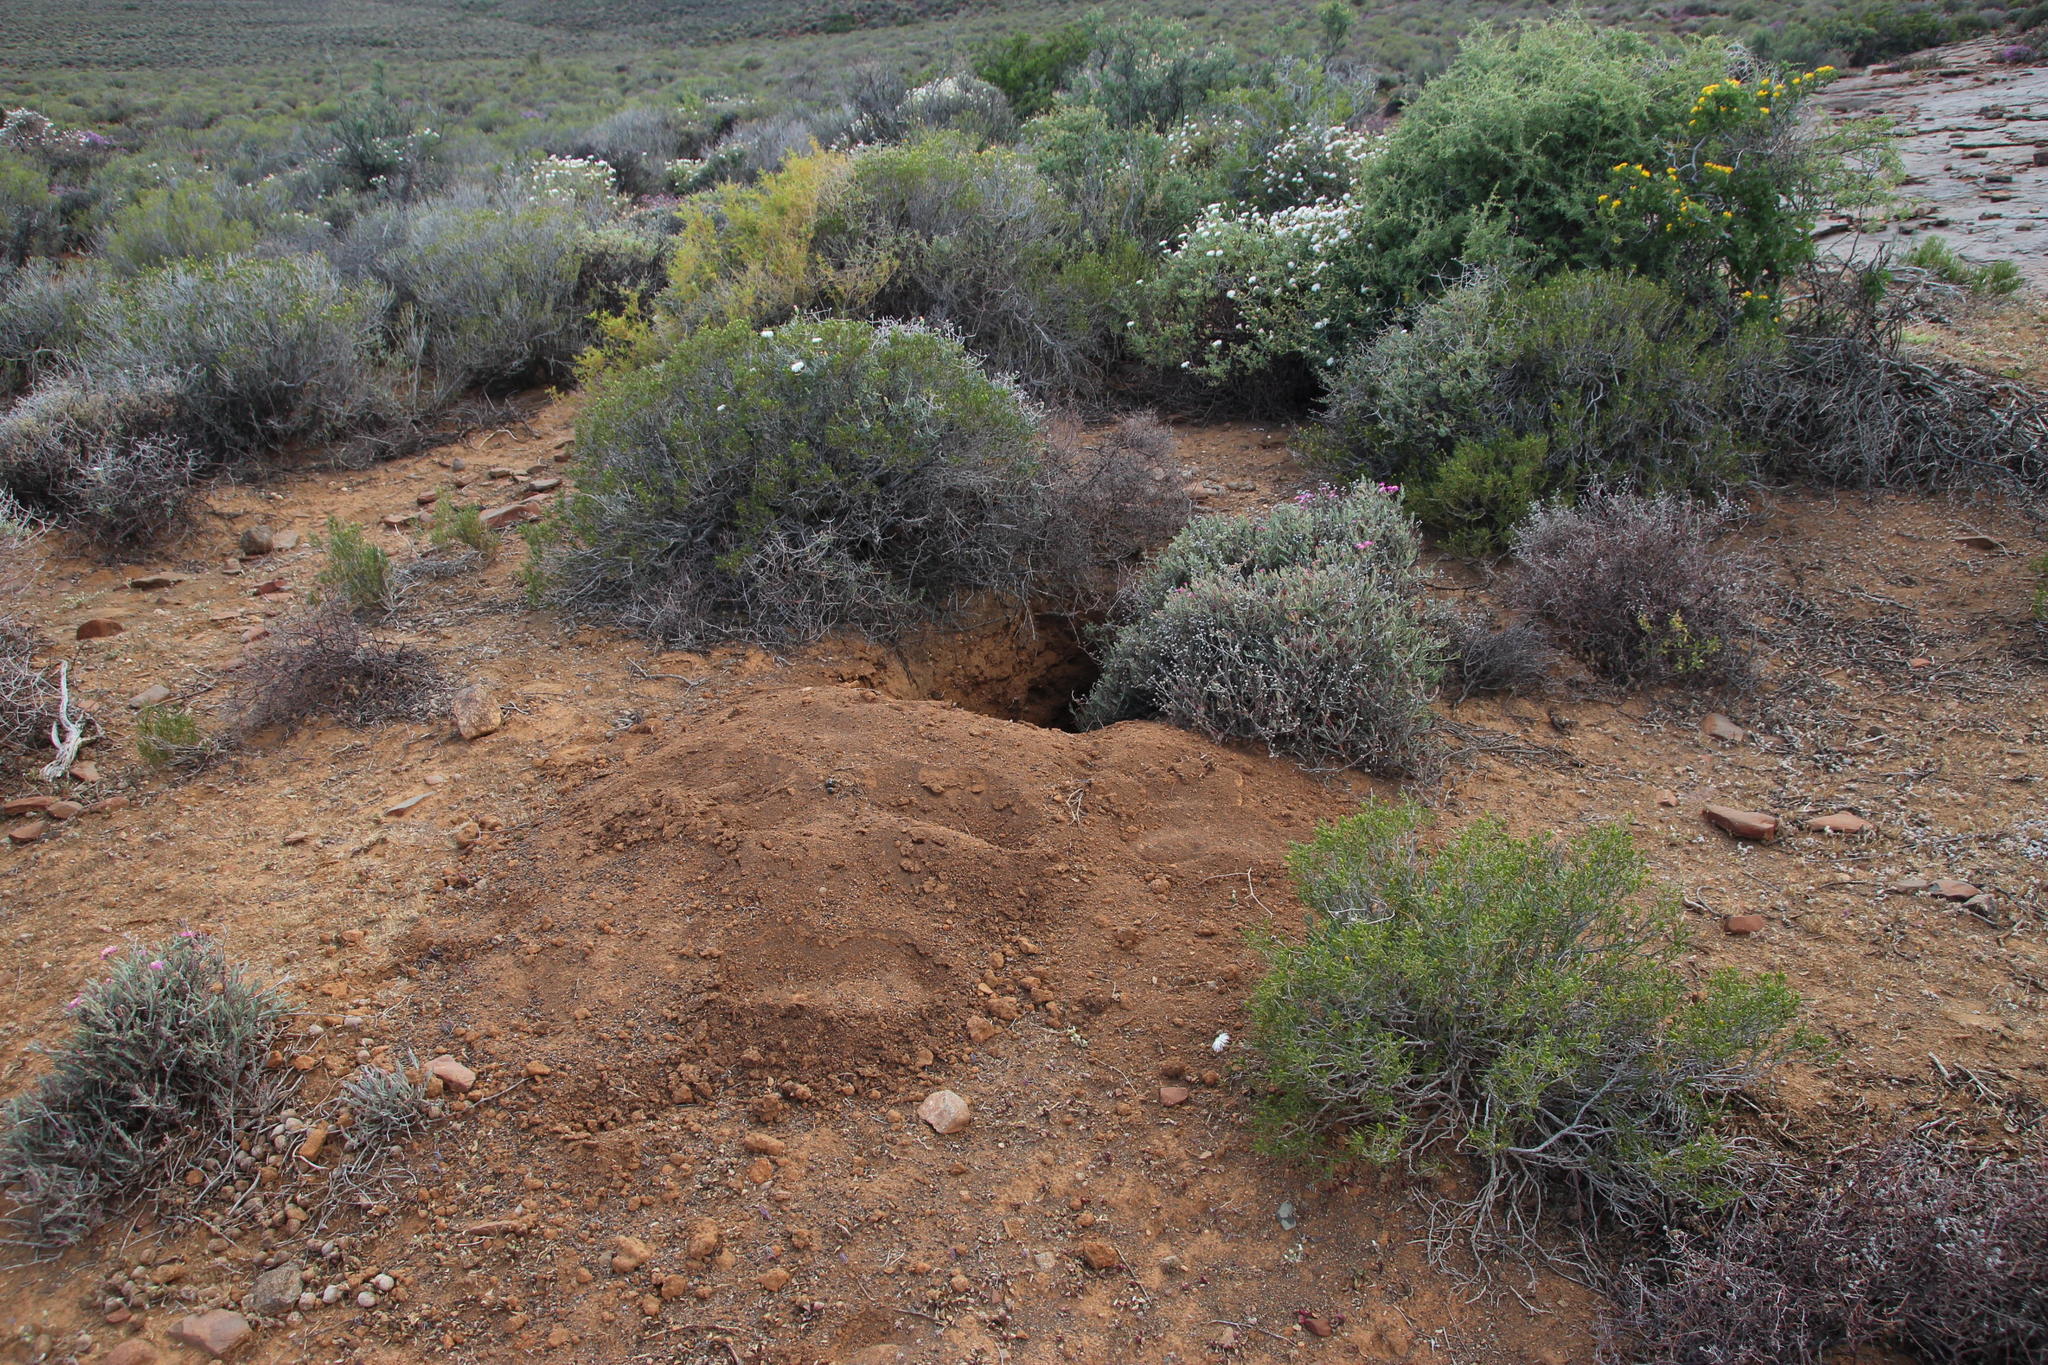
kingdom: Animalia
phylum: Chordata
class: Mammalia
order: Tubulidentata
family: Orycteropodidae
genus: Orycteropus
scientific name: Orycteropus afer
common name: Aardvark
